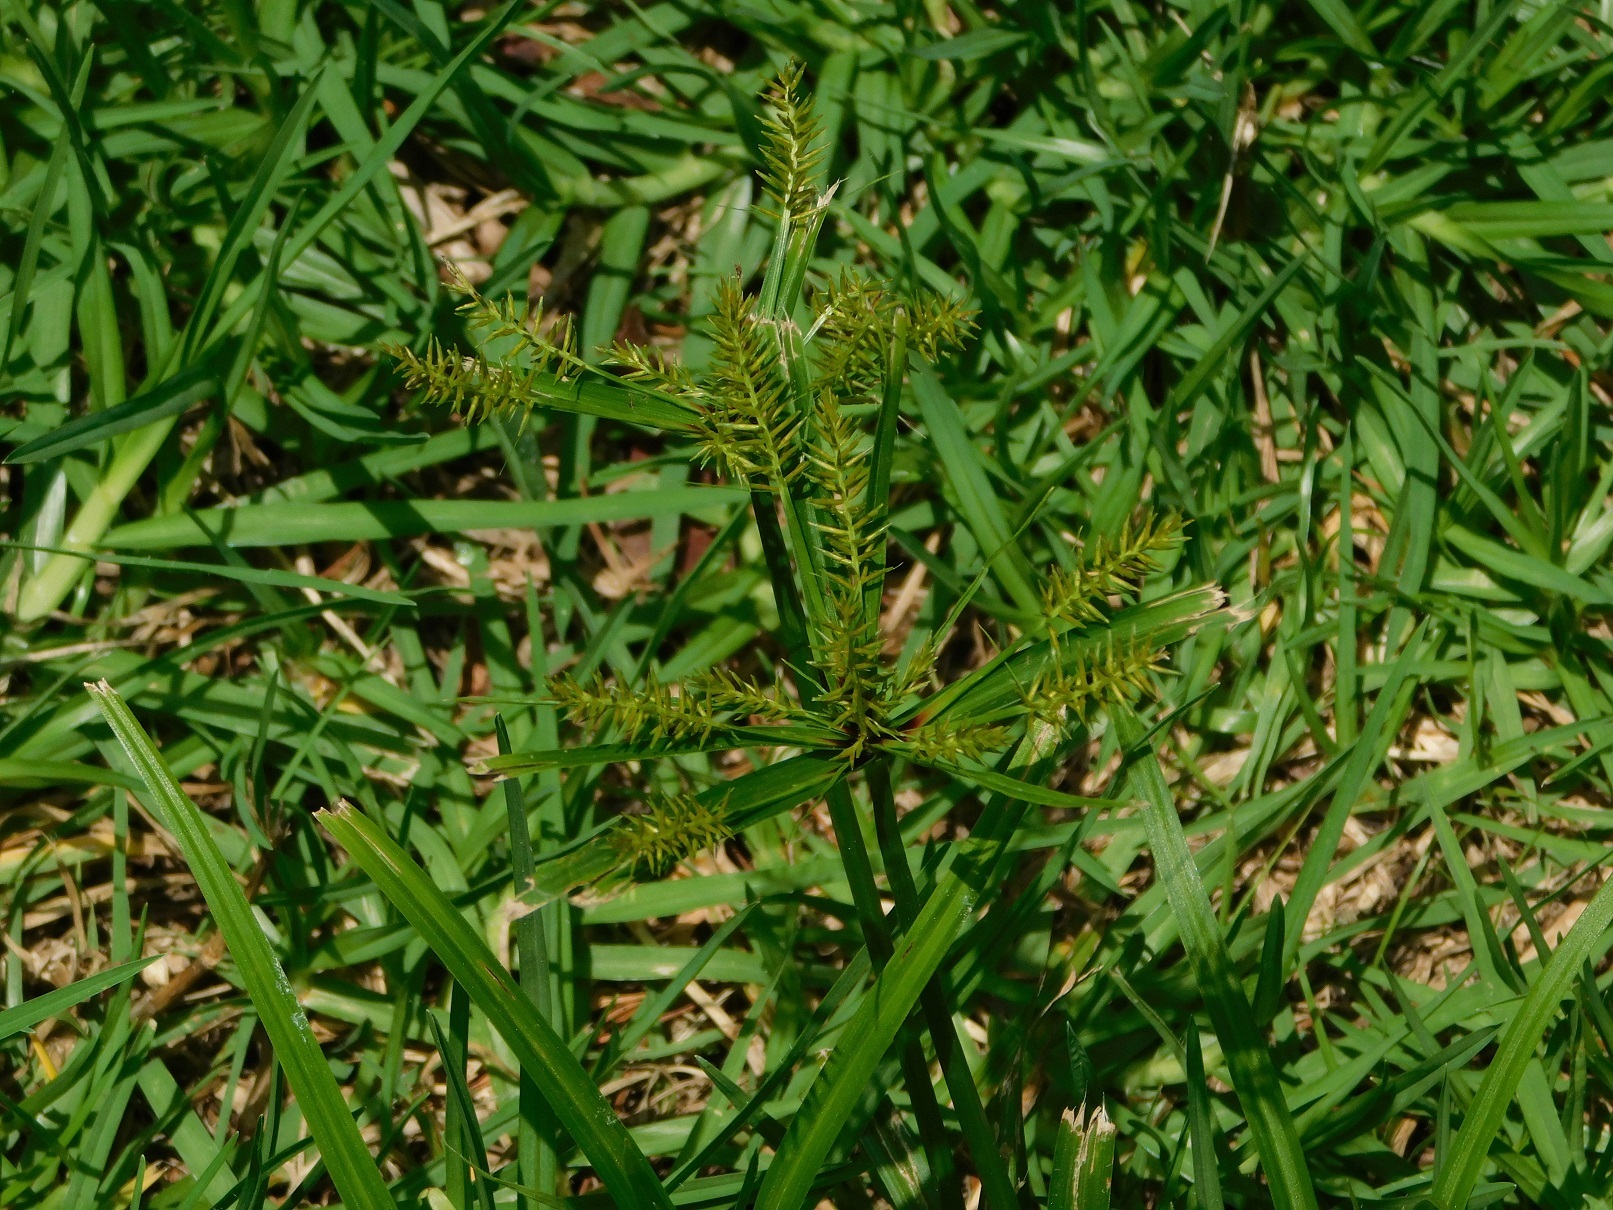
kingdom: Plantae
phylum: Tracheophyta
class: Liliopsida
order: Poales
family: Cyperaceae
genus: Cyperus
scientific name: Cyperus hermaphroditus
